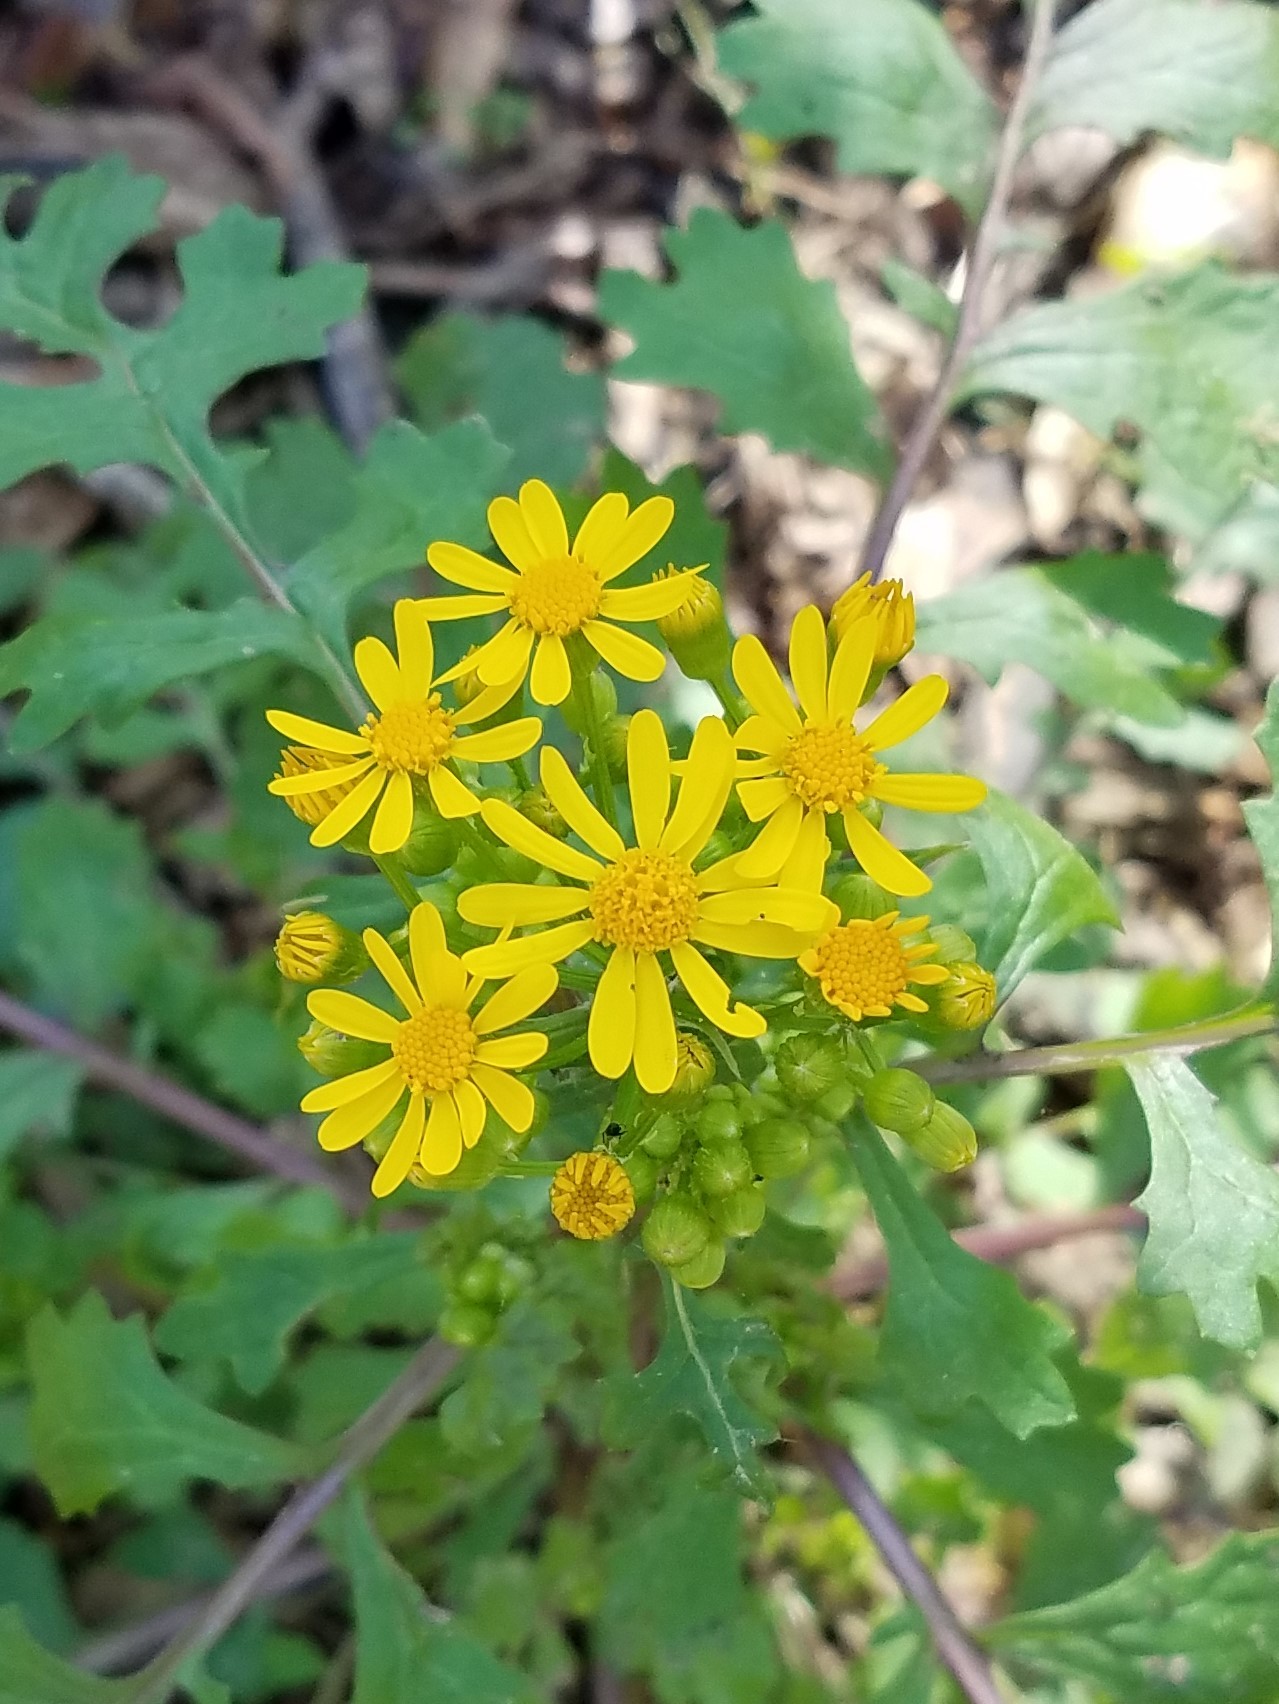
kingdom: Plantae
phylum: Tracheophyta
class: Magnoliopsida
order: Asterales
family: Asteraceae
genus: Packera
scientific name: Packera glabella
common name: Butterweed
